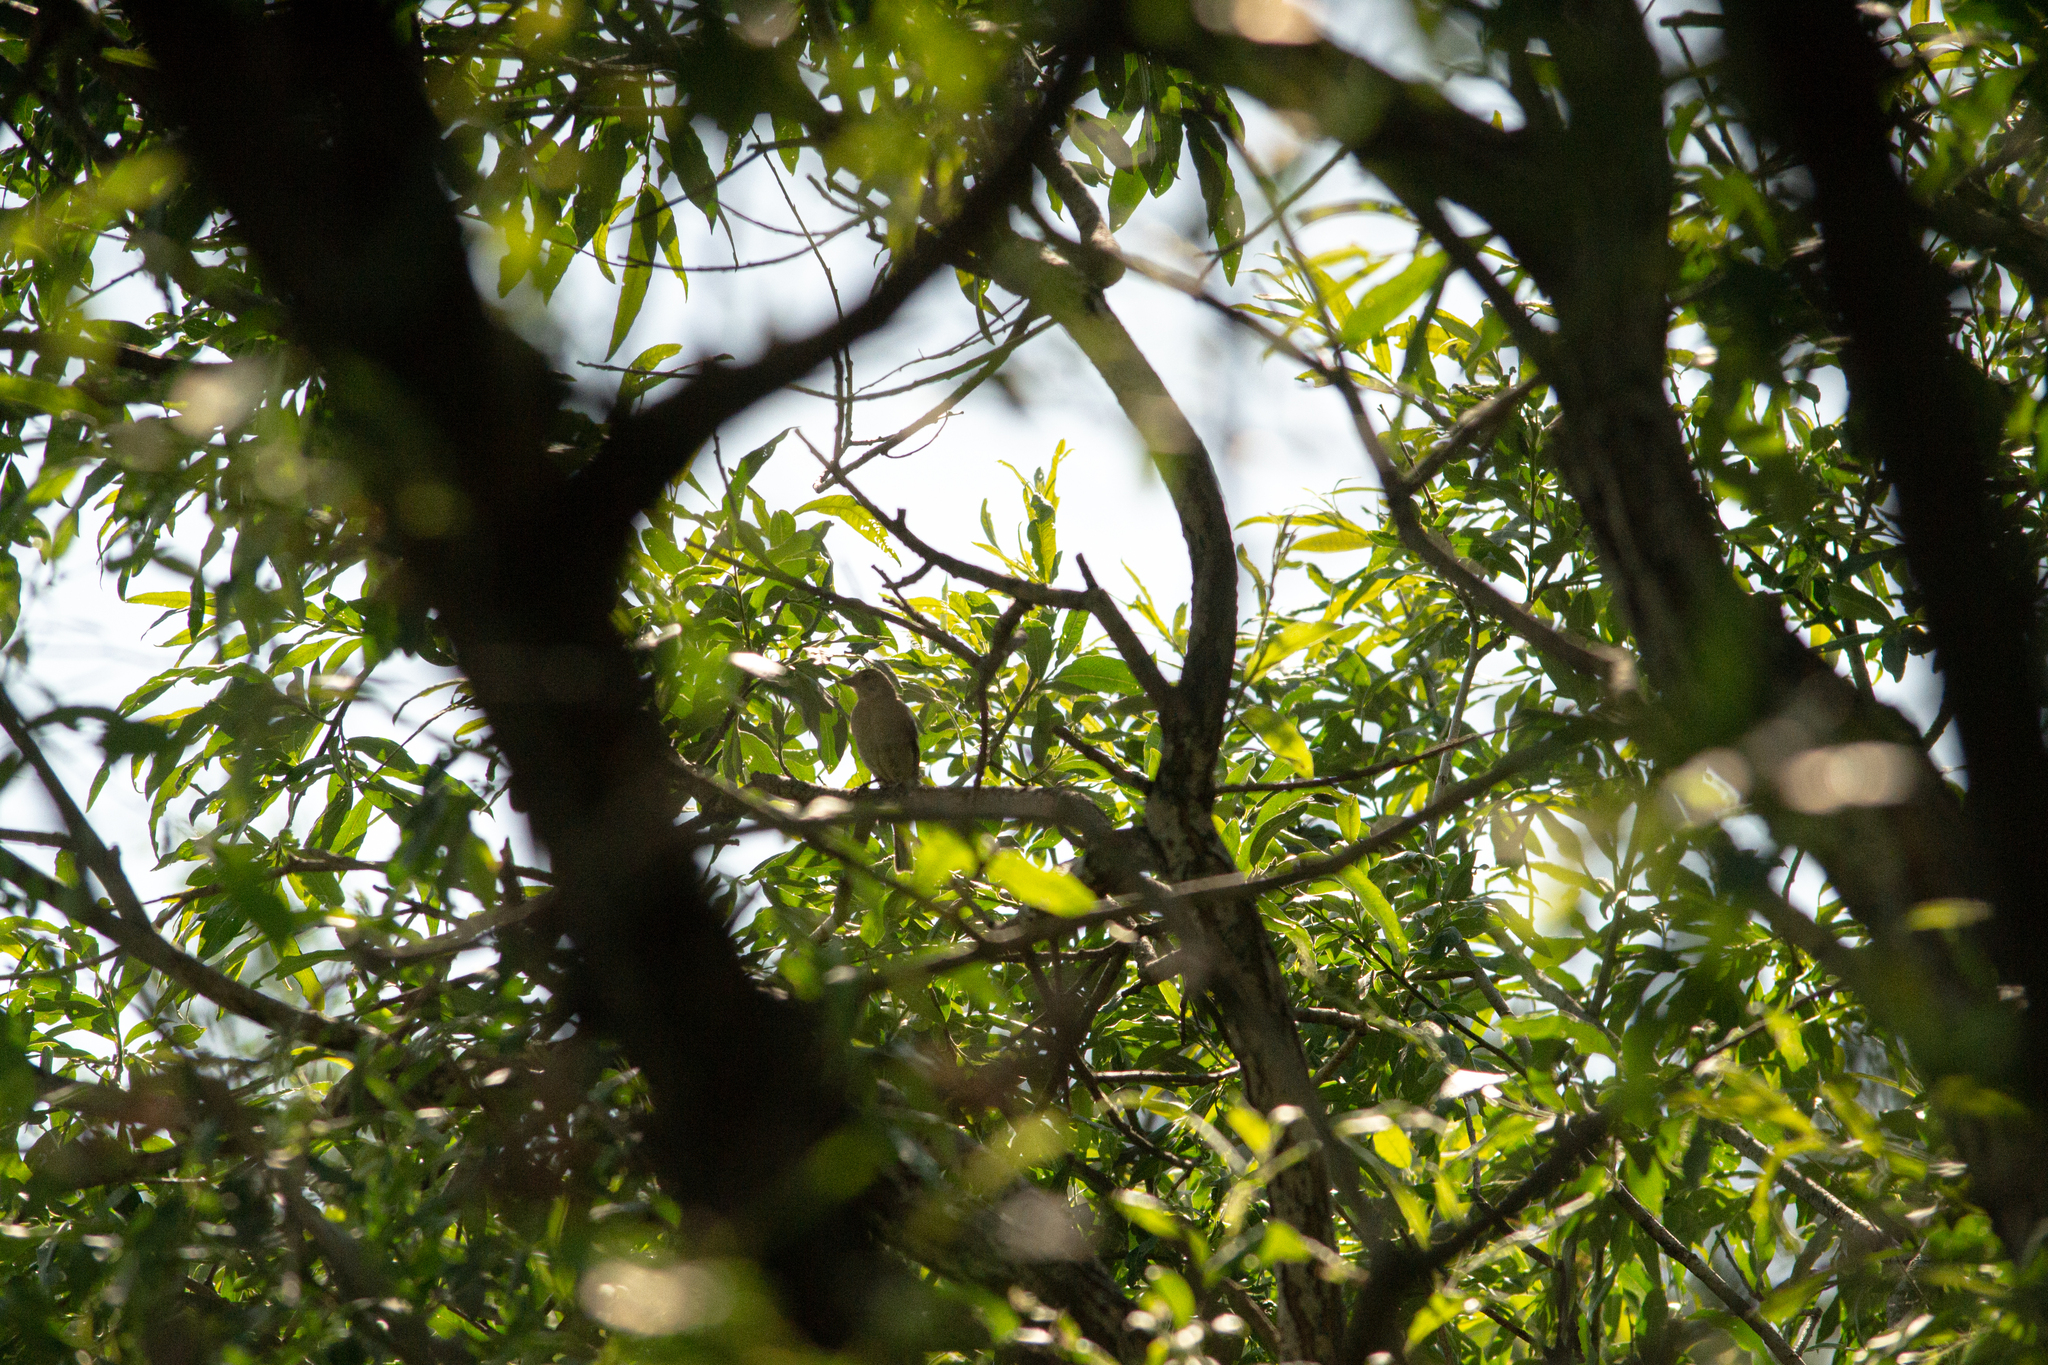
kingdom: Animalia
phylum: Chordata
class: Aves
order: Passeriformes
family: Fringillidae
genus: Linaria
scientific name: Linaria cannabina
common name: Common linnet
